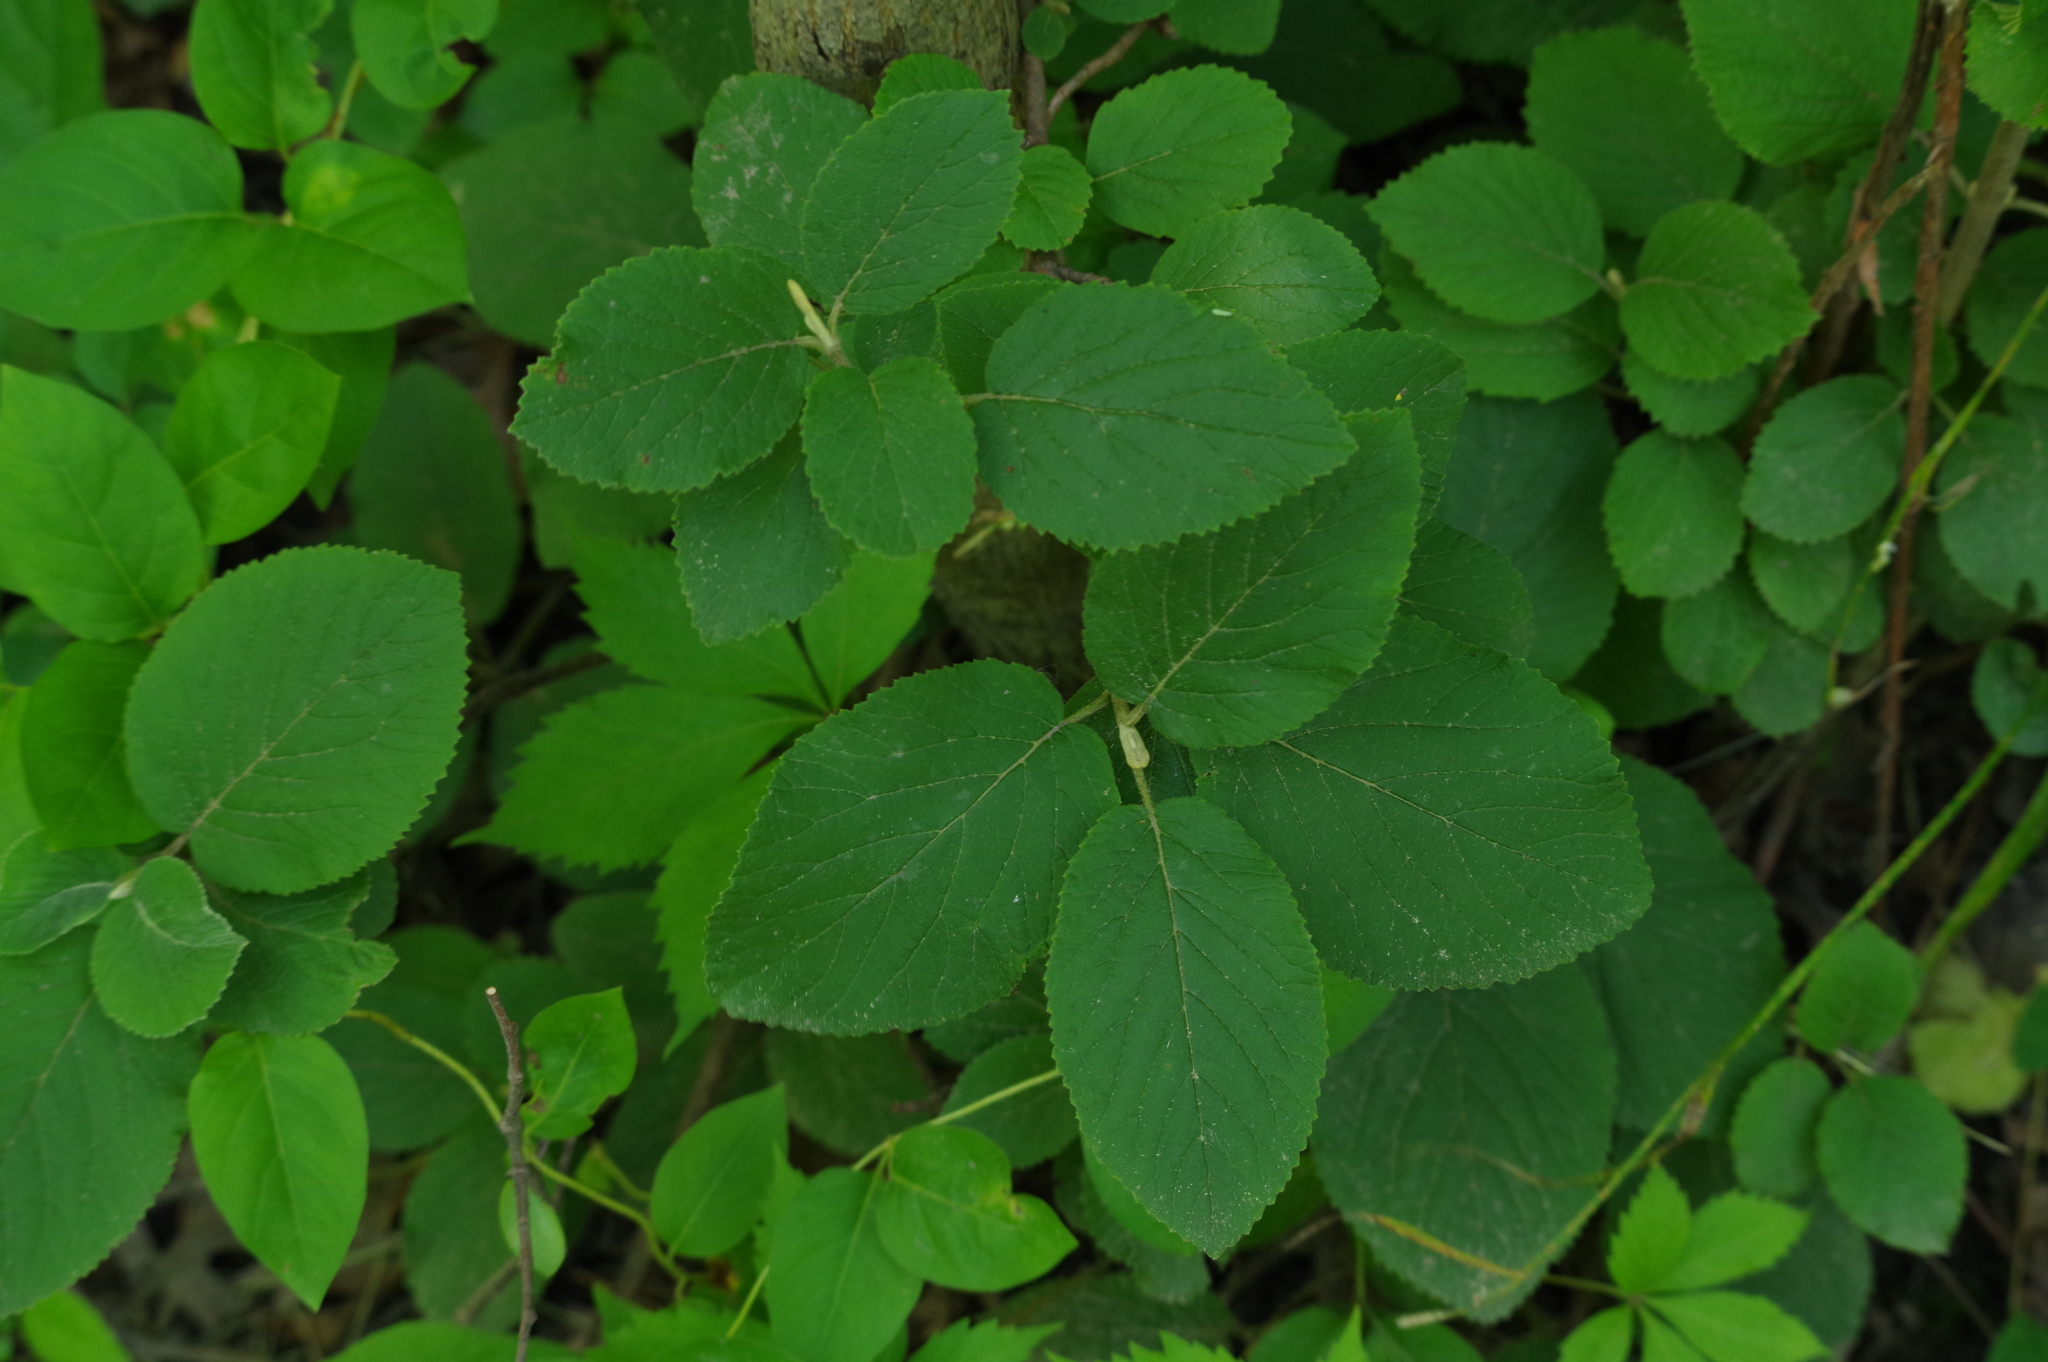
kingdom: Plantae
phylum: Tracheophyta
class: Magnoliopsida
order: Dipsacales
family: Viburnaceae
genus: Viburnum
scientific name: Viburnum lantana
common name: Wayfaring tree
